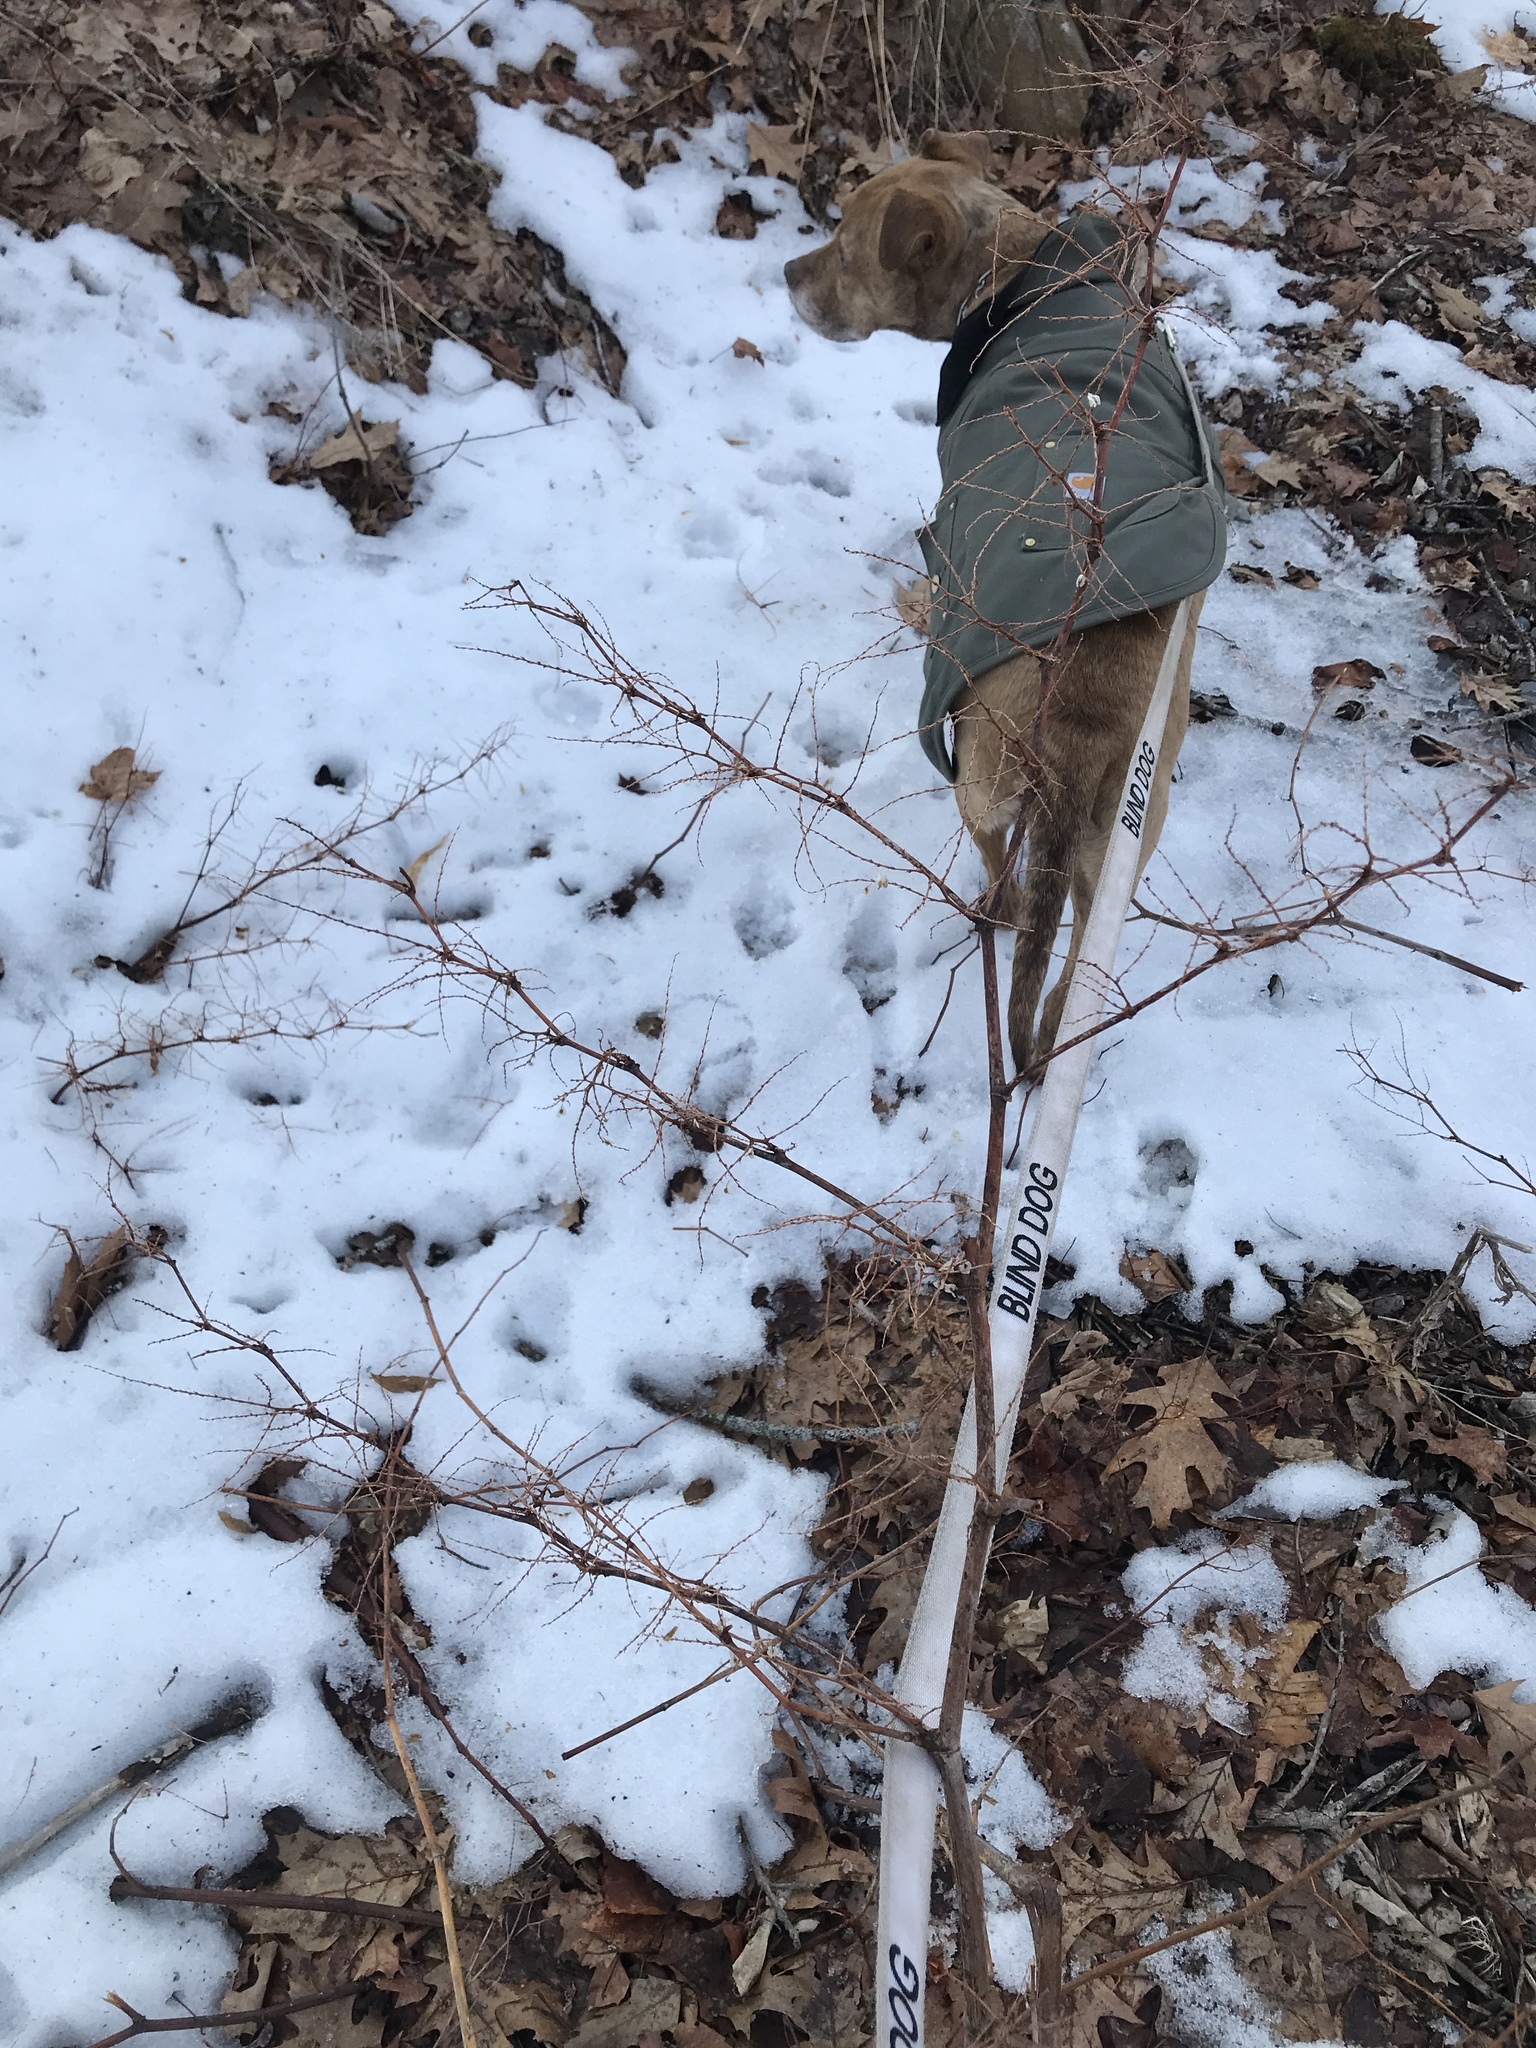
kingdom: Plantae
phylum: Tracheophyta
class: Magnoliopsida
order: Caryophyllales
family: Polygonaceae
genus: Reynoutria
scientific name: Reynoutria japonica
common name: Japanese knotweed
